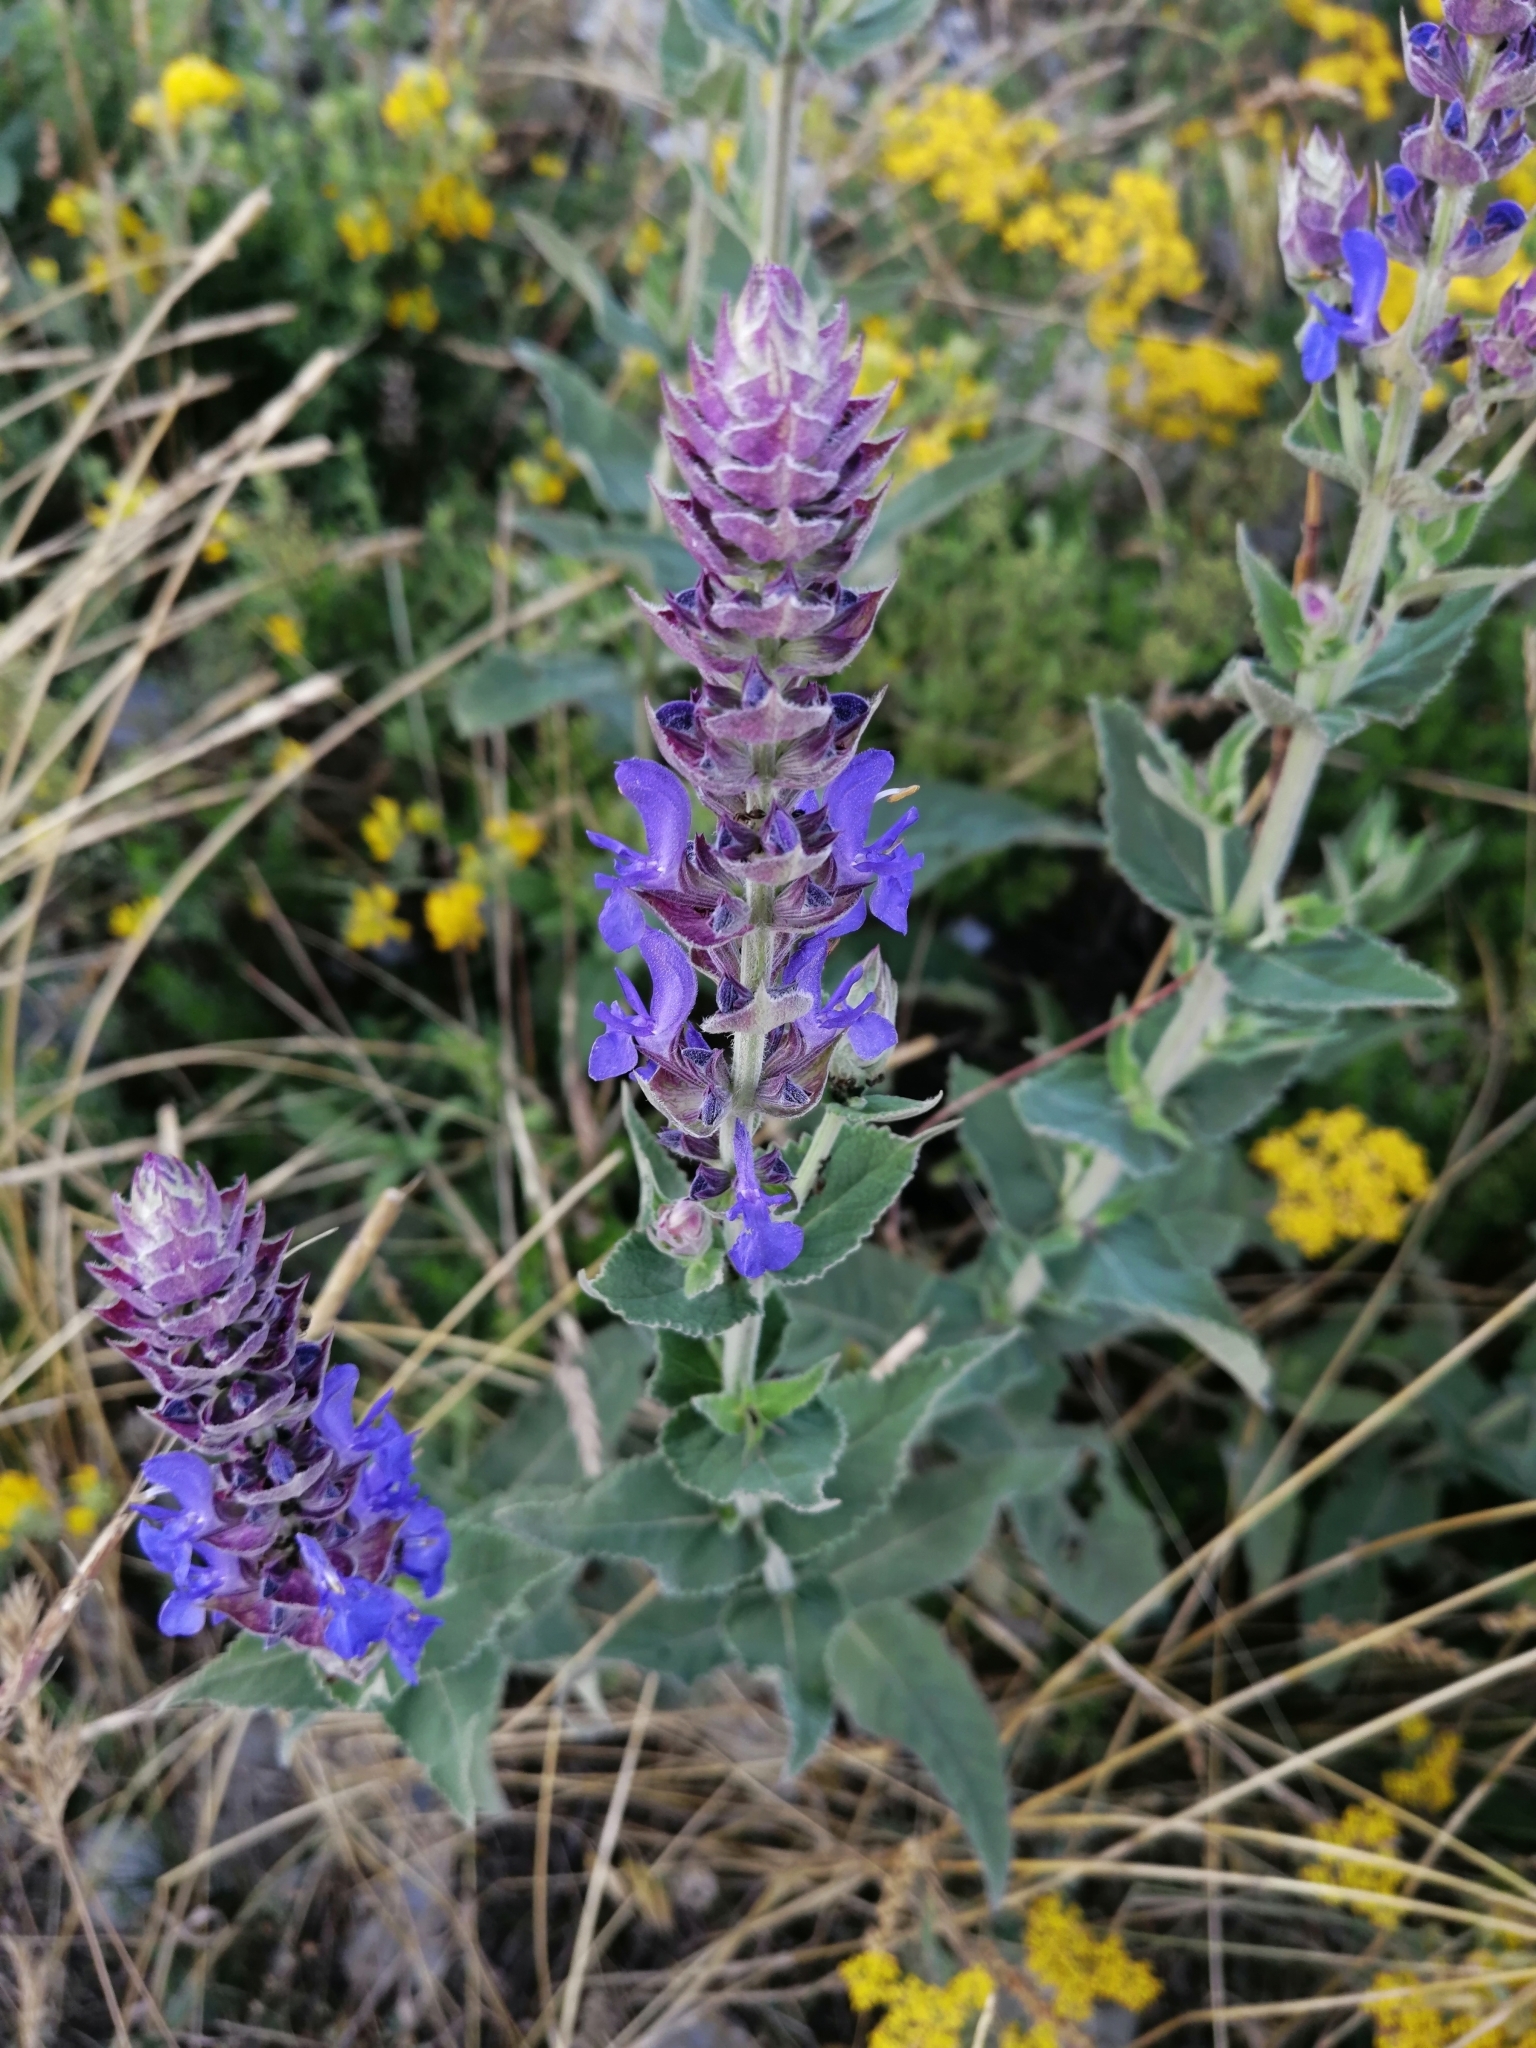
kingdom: Plantae
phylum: Tracheophyta
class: Magnoliopsida
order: Lamiales
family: Lamiaceae
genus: Salvia
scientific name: Salvia nemorosa
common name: Balkan clary
